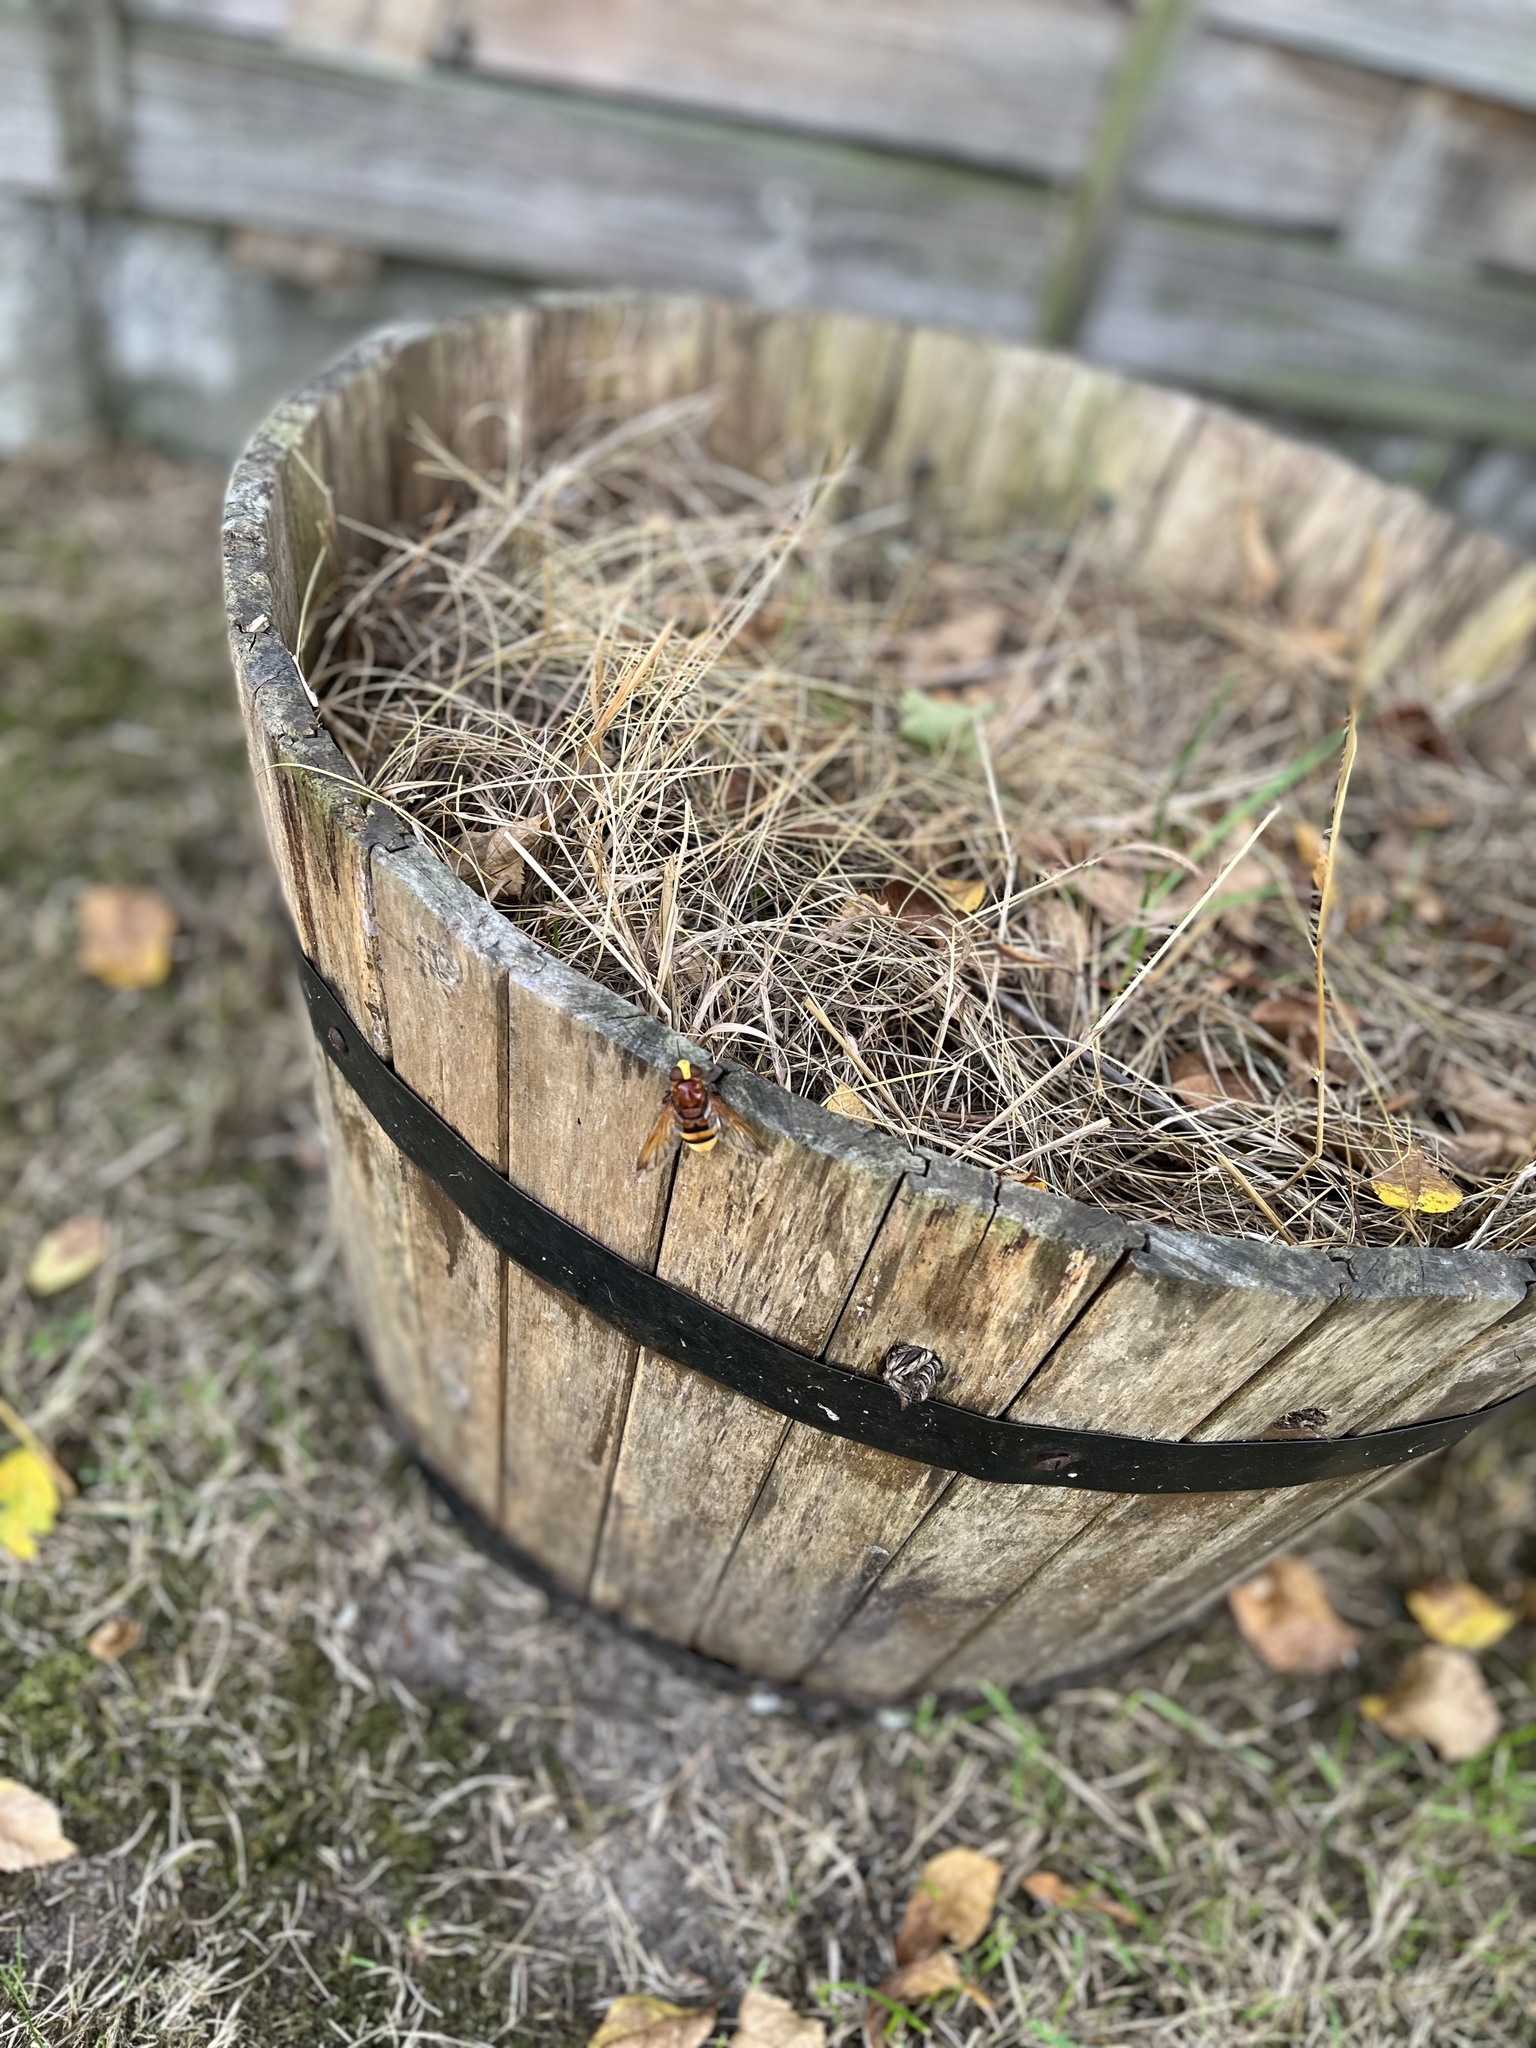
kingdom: Animalia
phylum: Arthropoda
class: Insecta
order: Diptera
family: Syrphidae
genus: Volucella
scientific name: Volucella zonaria
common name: Hornet hoverfly
